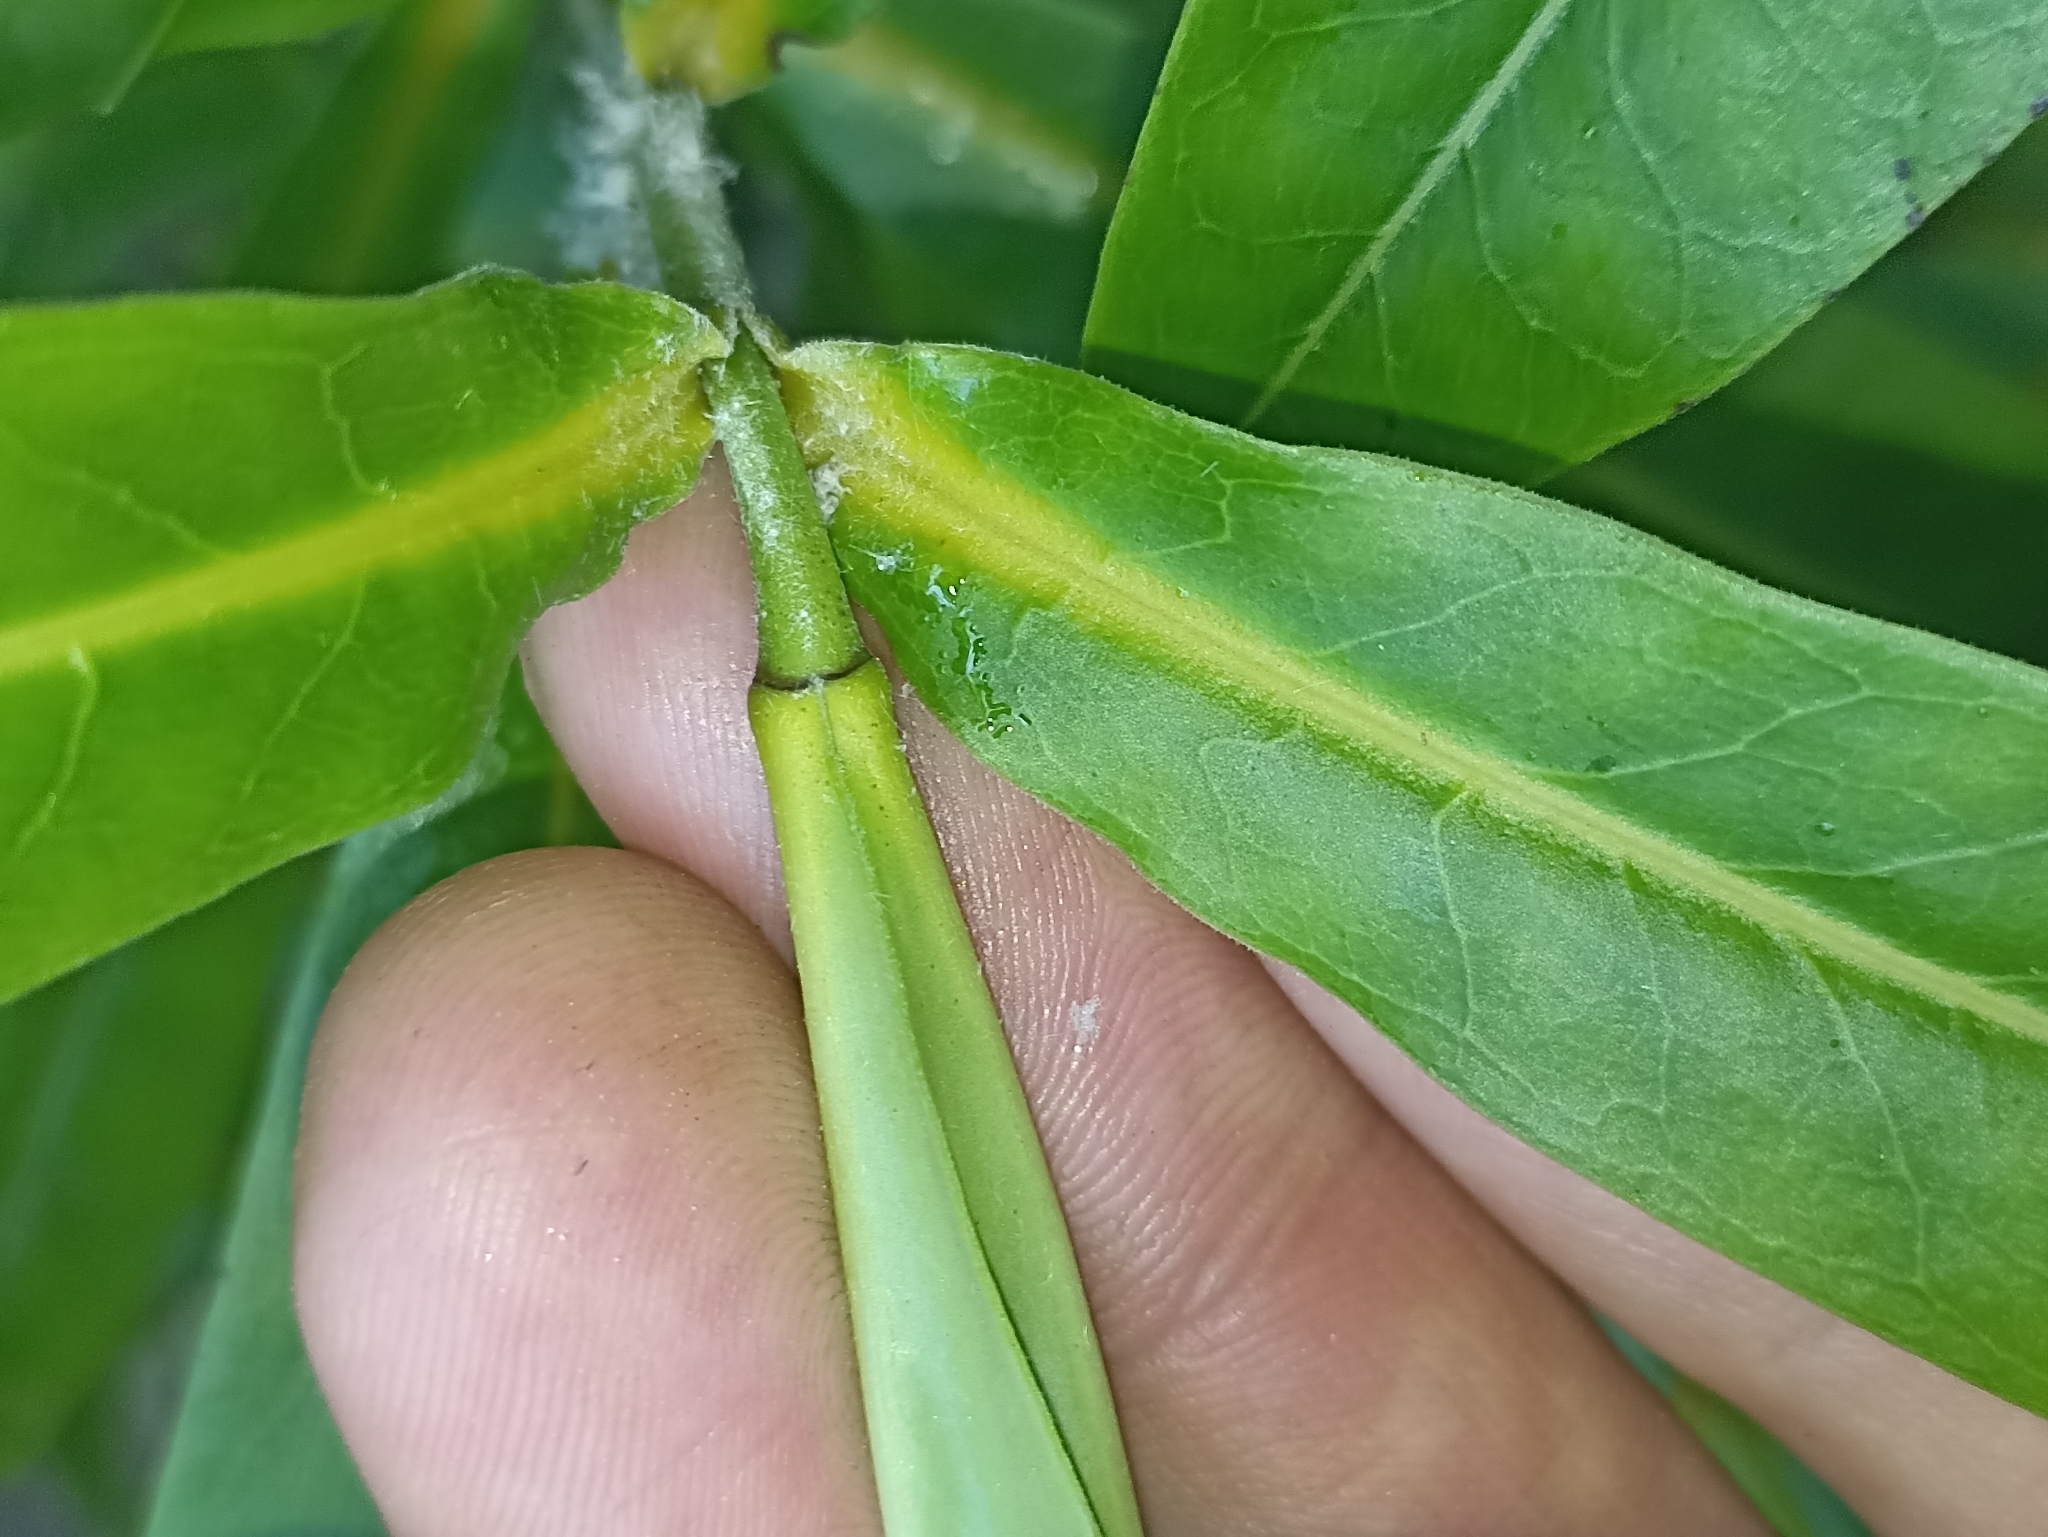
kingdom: Plantae
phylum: Tracheophyta
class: Magnoliopsida
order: Lamiales
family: Plantaginaceae
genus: Veronica
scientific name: Veronica flavida
